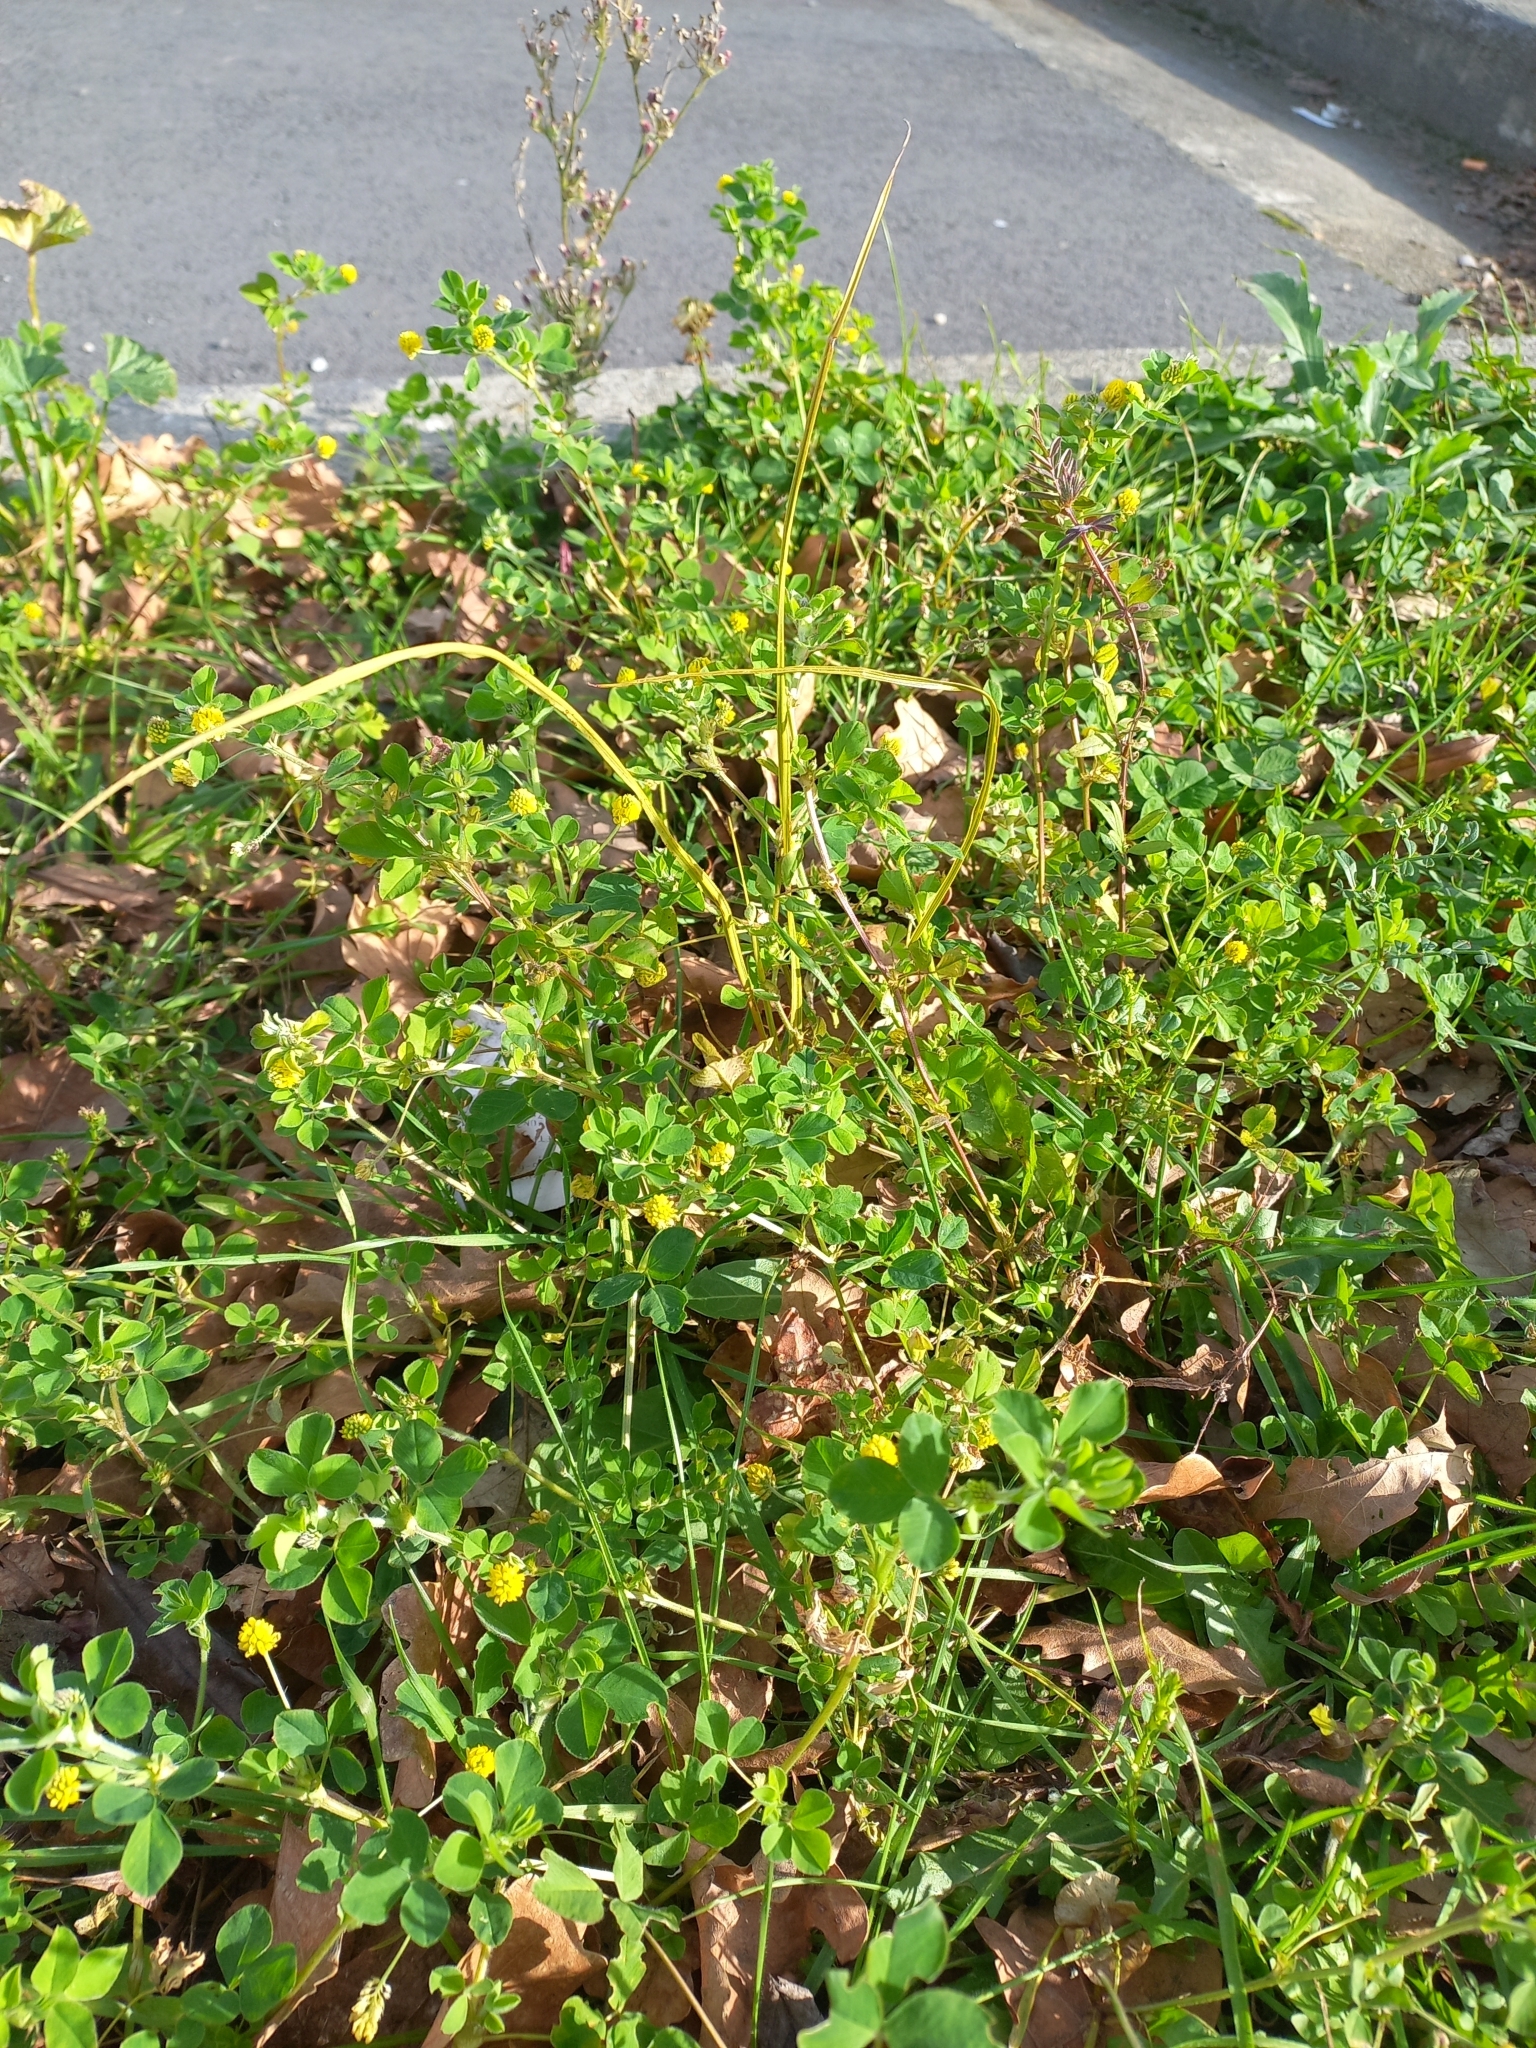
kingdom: Plantae
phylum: Tracheophyta
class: Magnoliopsida
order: Fabales
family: Fabaceae
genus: Medicago
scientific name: Medicago lupulina
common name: Black medick
